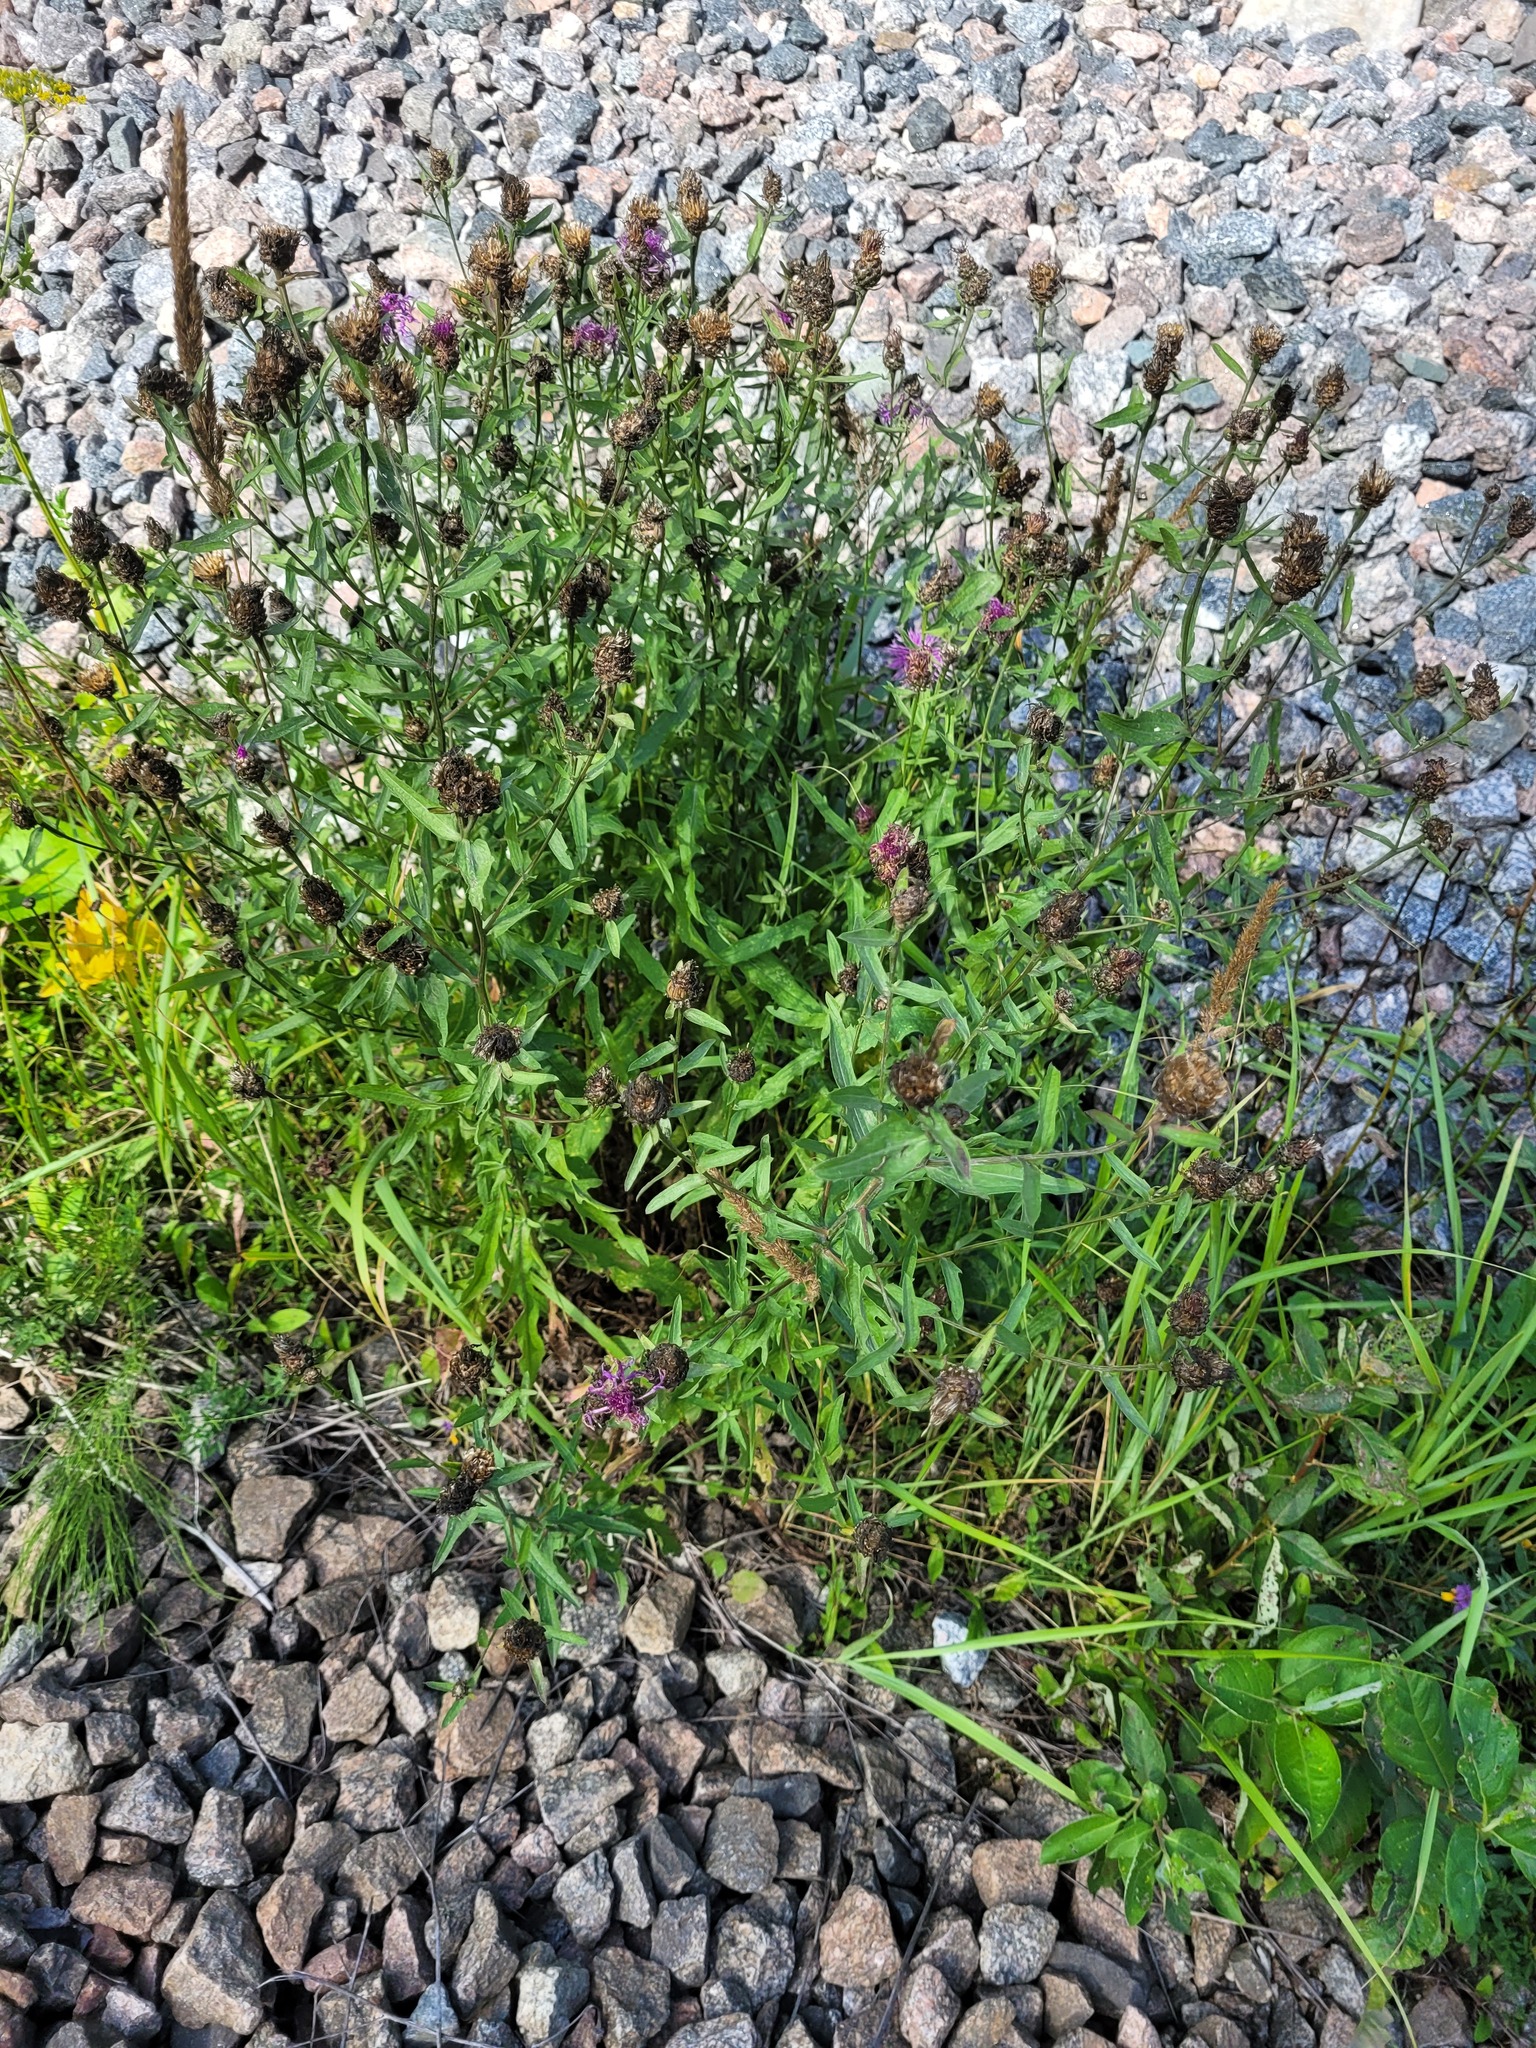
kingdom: Plantae
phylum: Tracheophyta
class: Magnoliopsida
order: Asterales
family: Asteraceae
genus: Centaurea
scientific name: Centaurea jacea
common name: Brown knapweed
